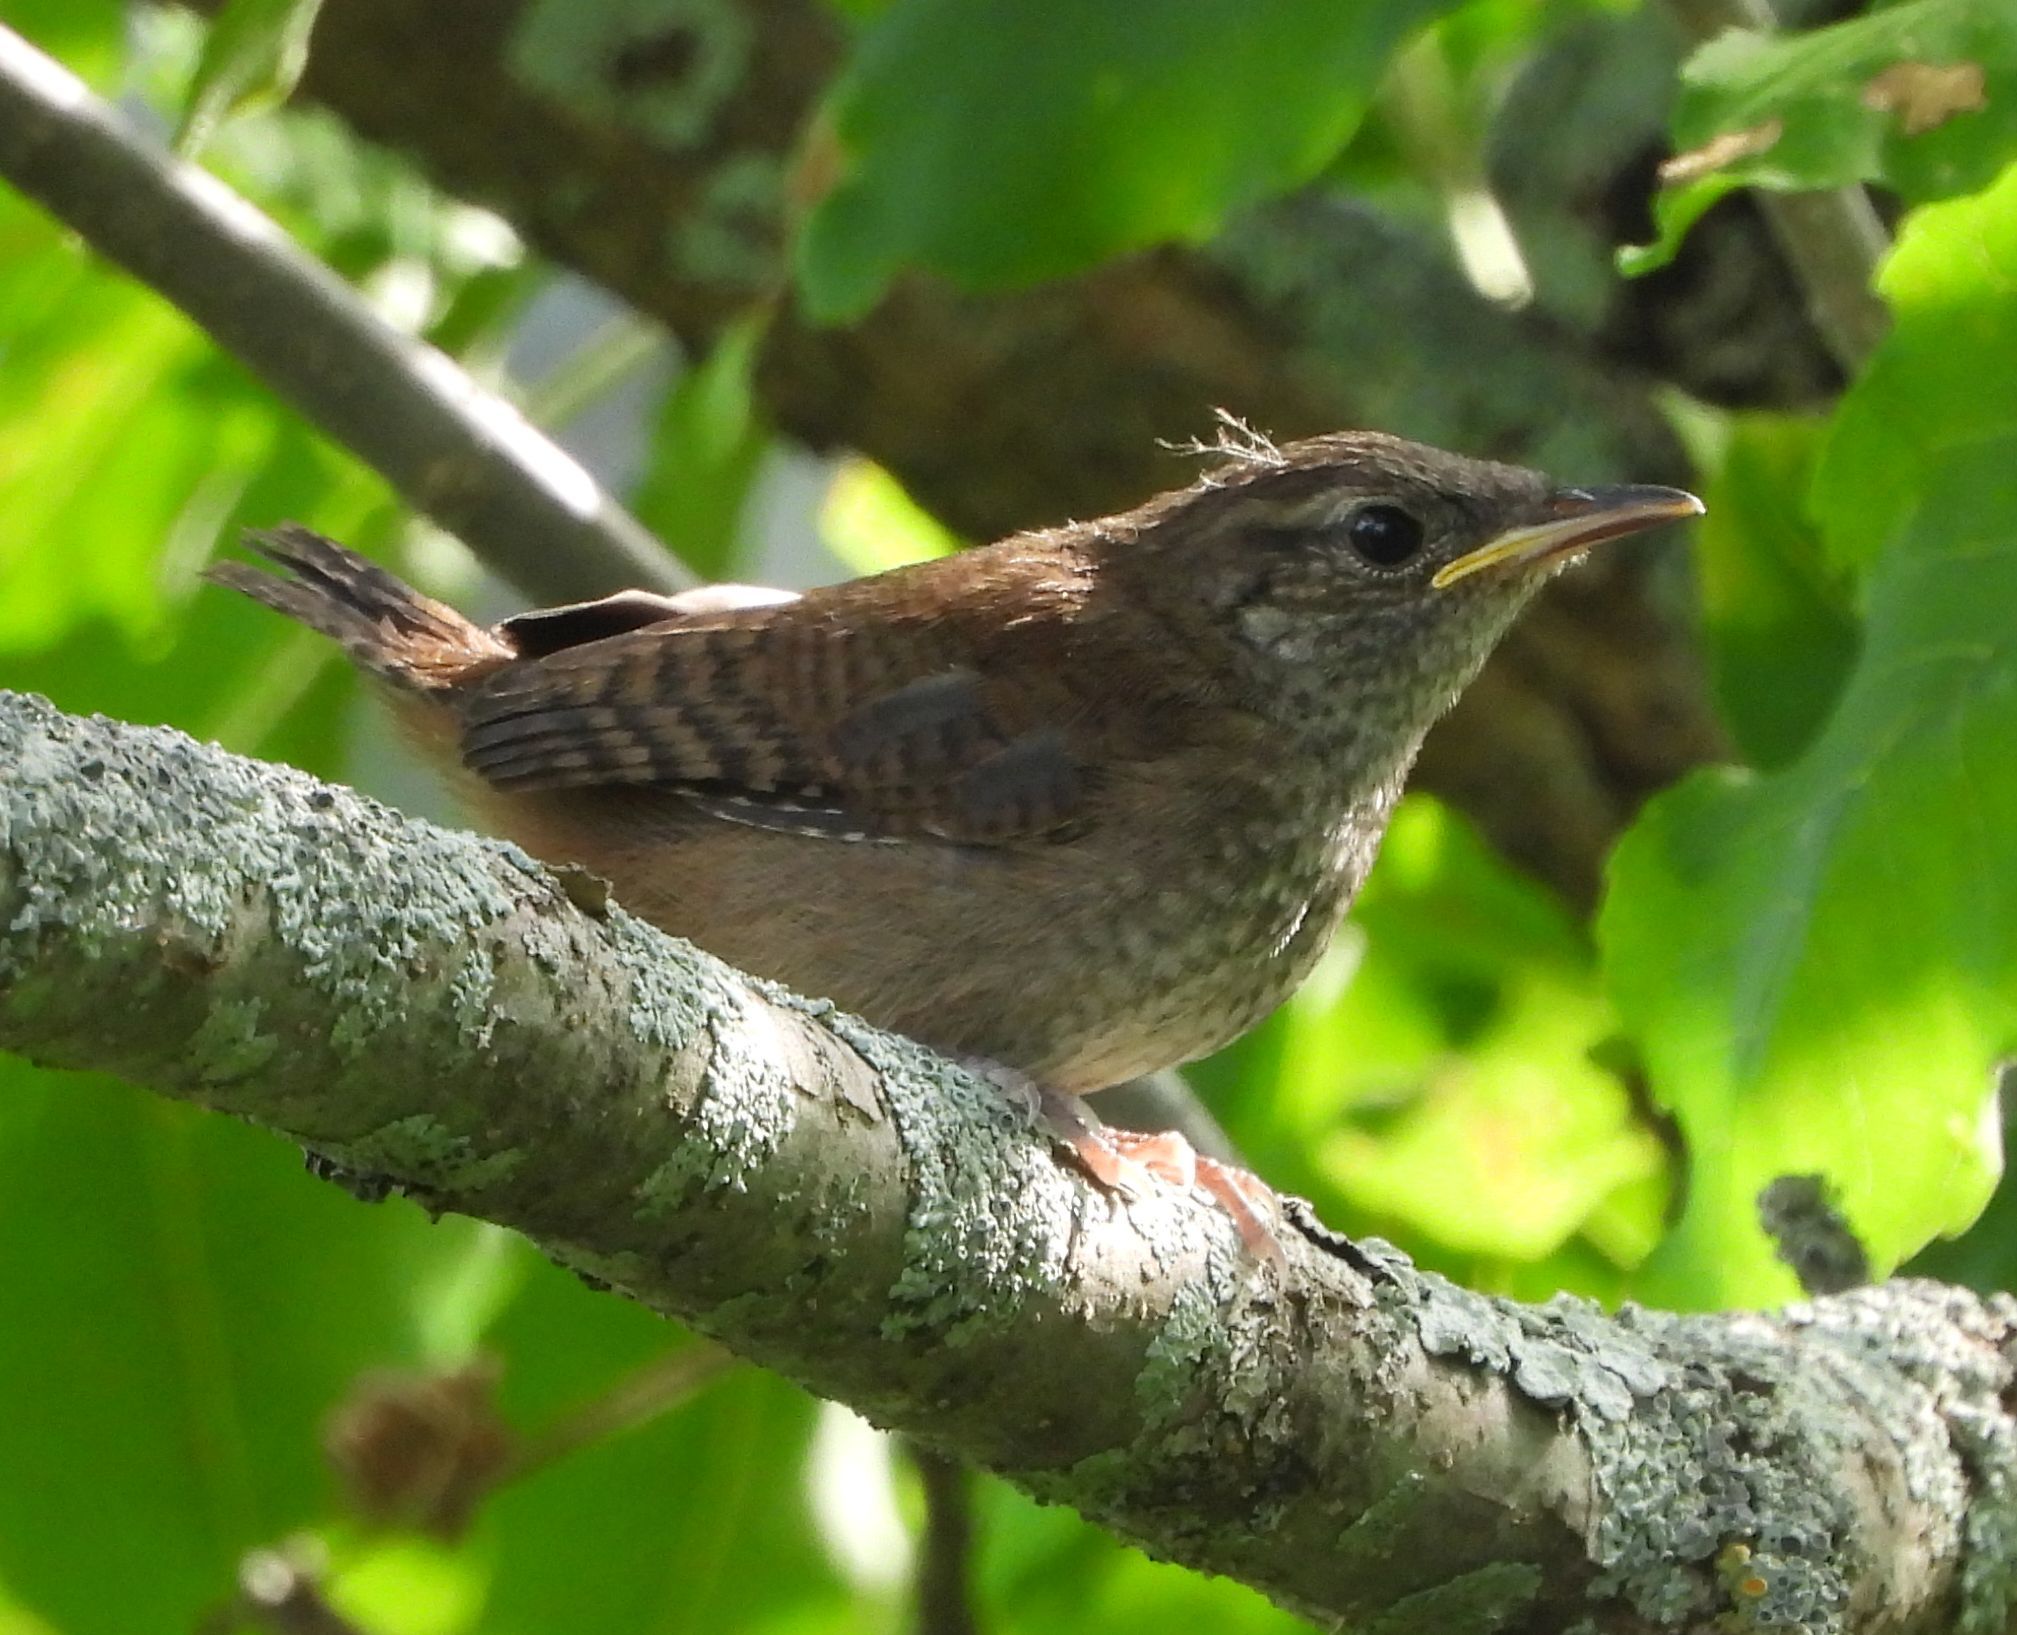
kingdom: Animalia
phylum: Chordata
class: Aves
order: Passeriformes
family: Troglodytidae
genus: Troglodytes
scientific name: Troglodytes aedon
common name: House wren
